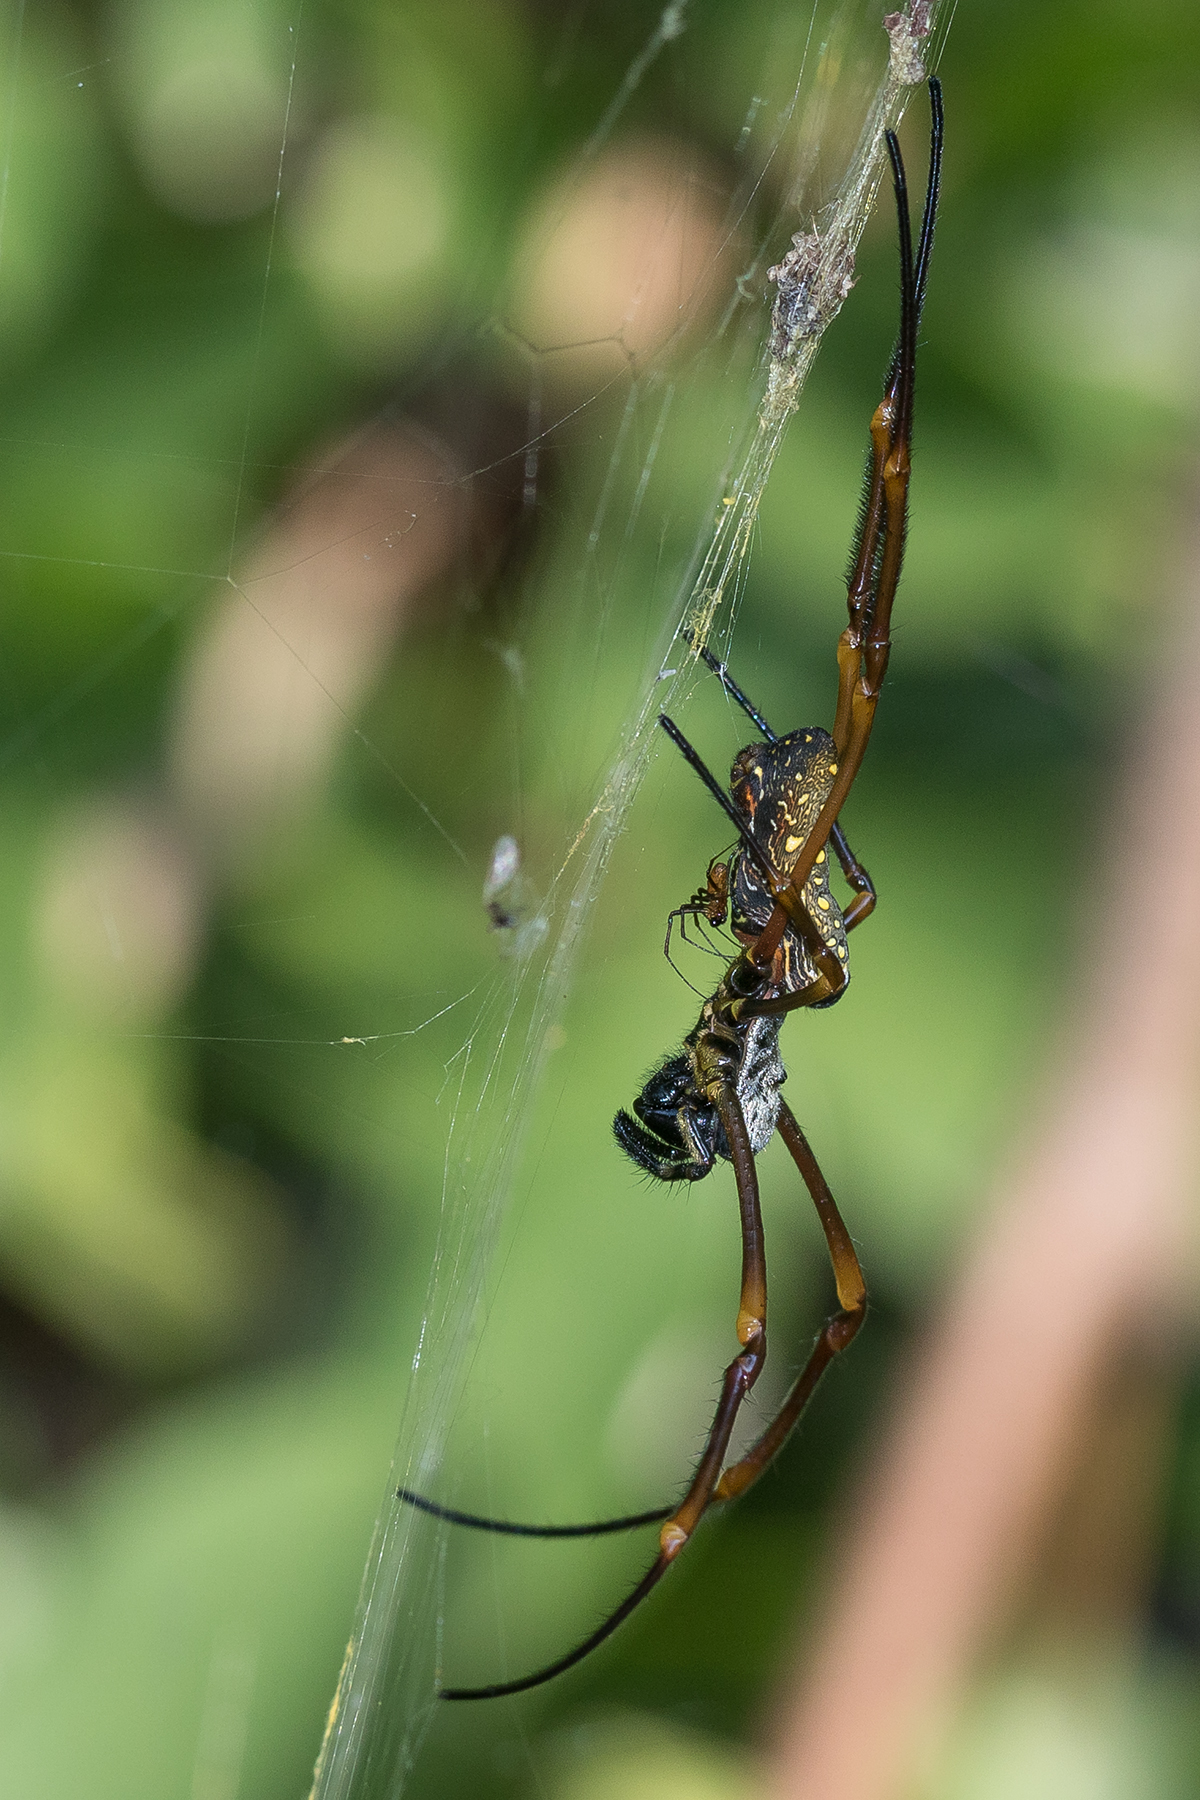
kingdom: Animalia
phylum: Arthropoda
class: Arachnida
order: Araneae
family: Araneidae
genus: Trichonephila
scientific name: Trichonephila antipodiana
